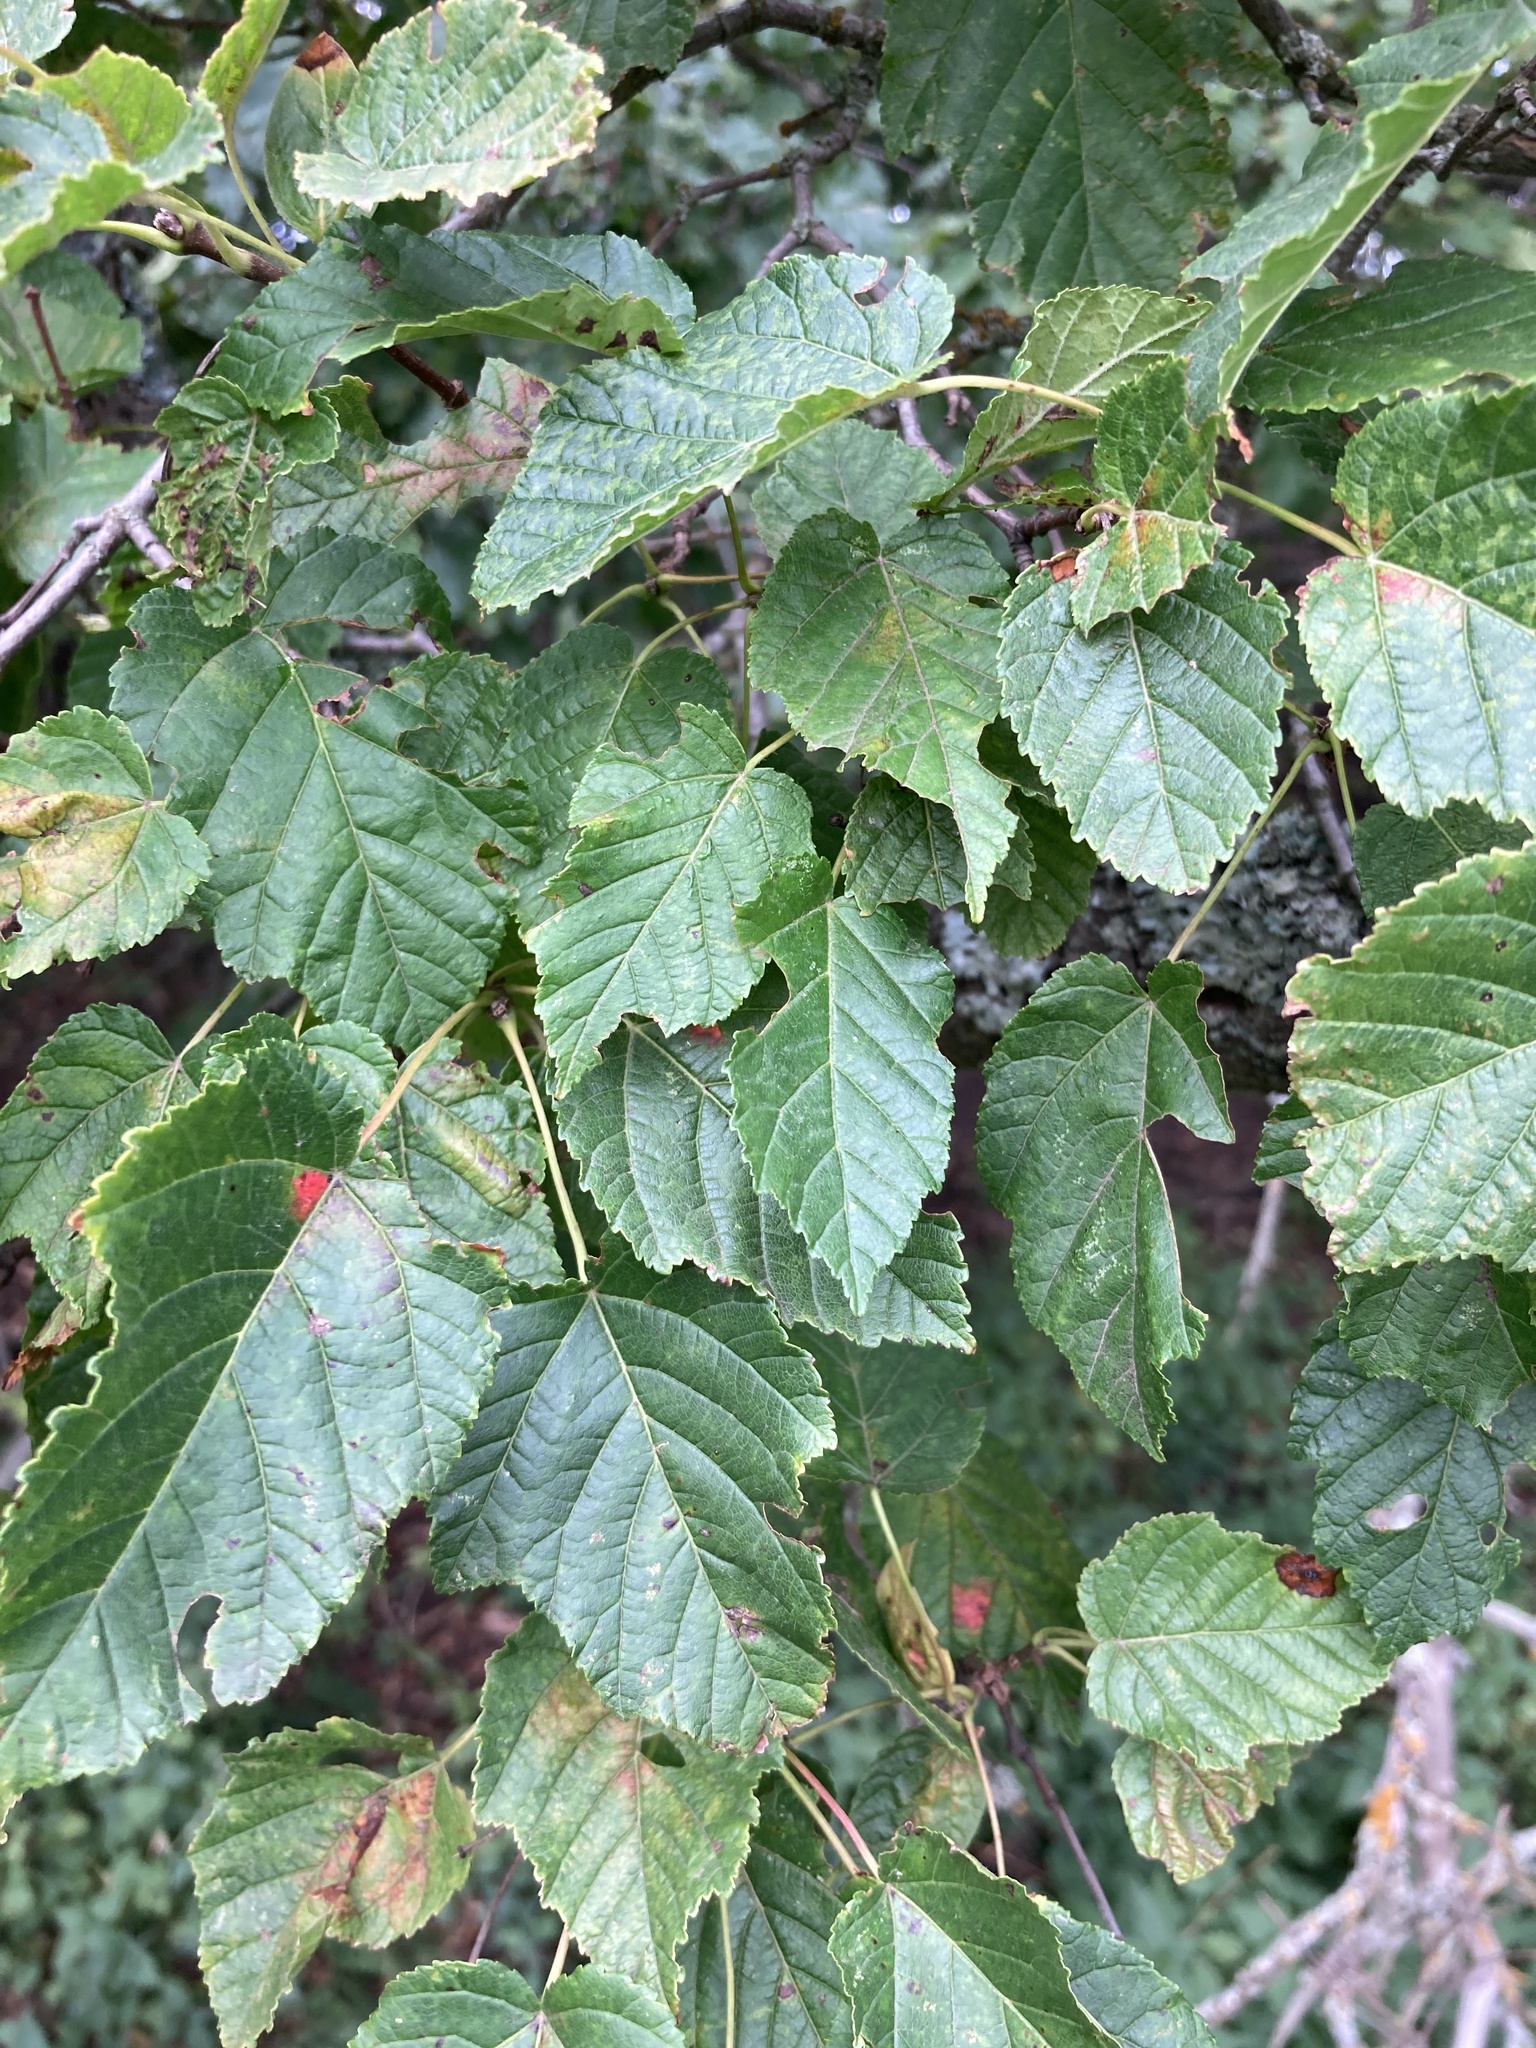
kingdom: Plantae
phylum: Tracheophyta
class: Magnoliopsida
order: Sapindales
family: Sapindaceae
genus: Acer
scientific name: Acer tataricum
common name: Tartar maple
